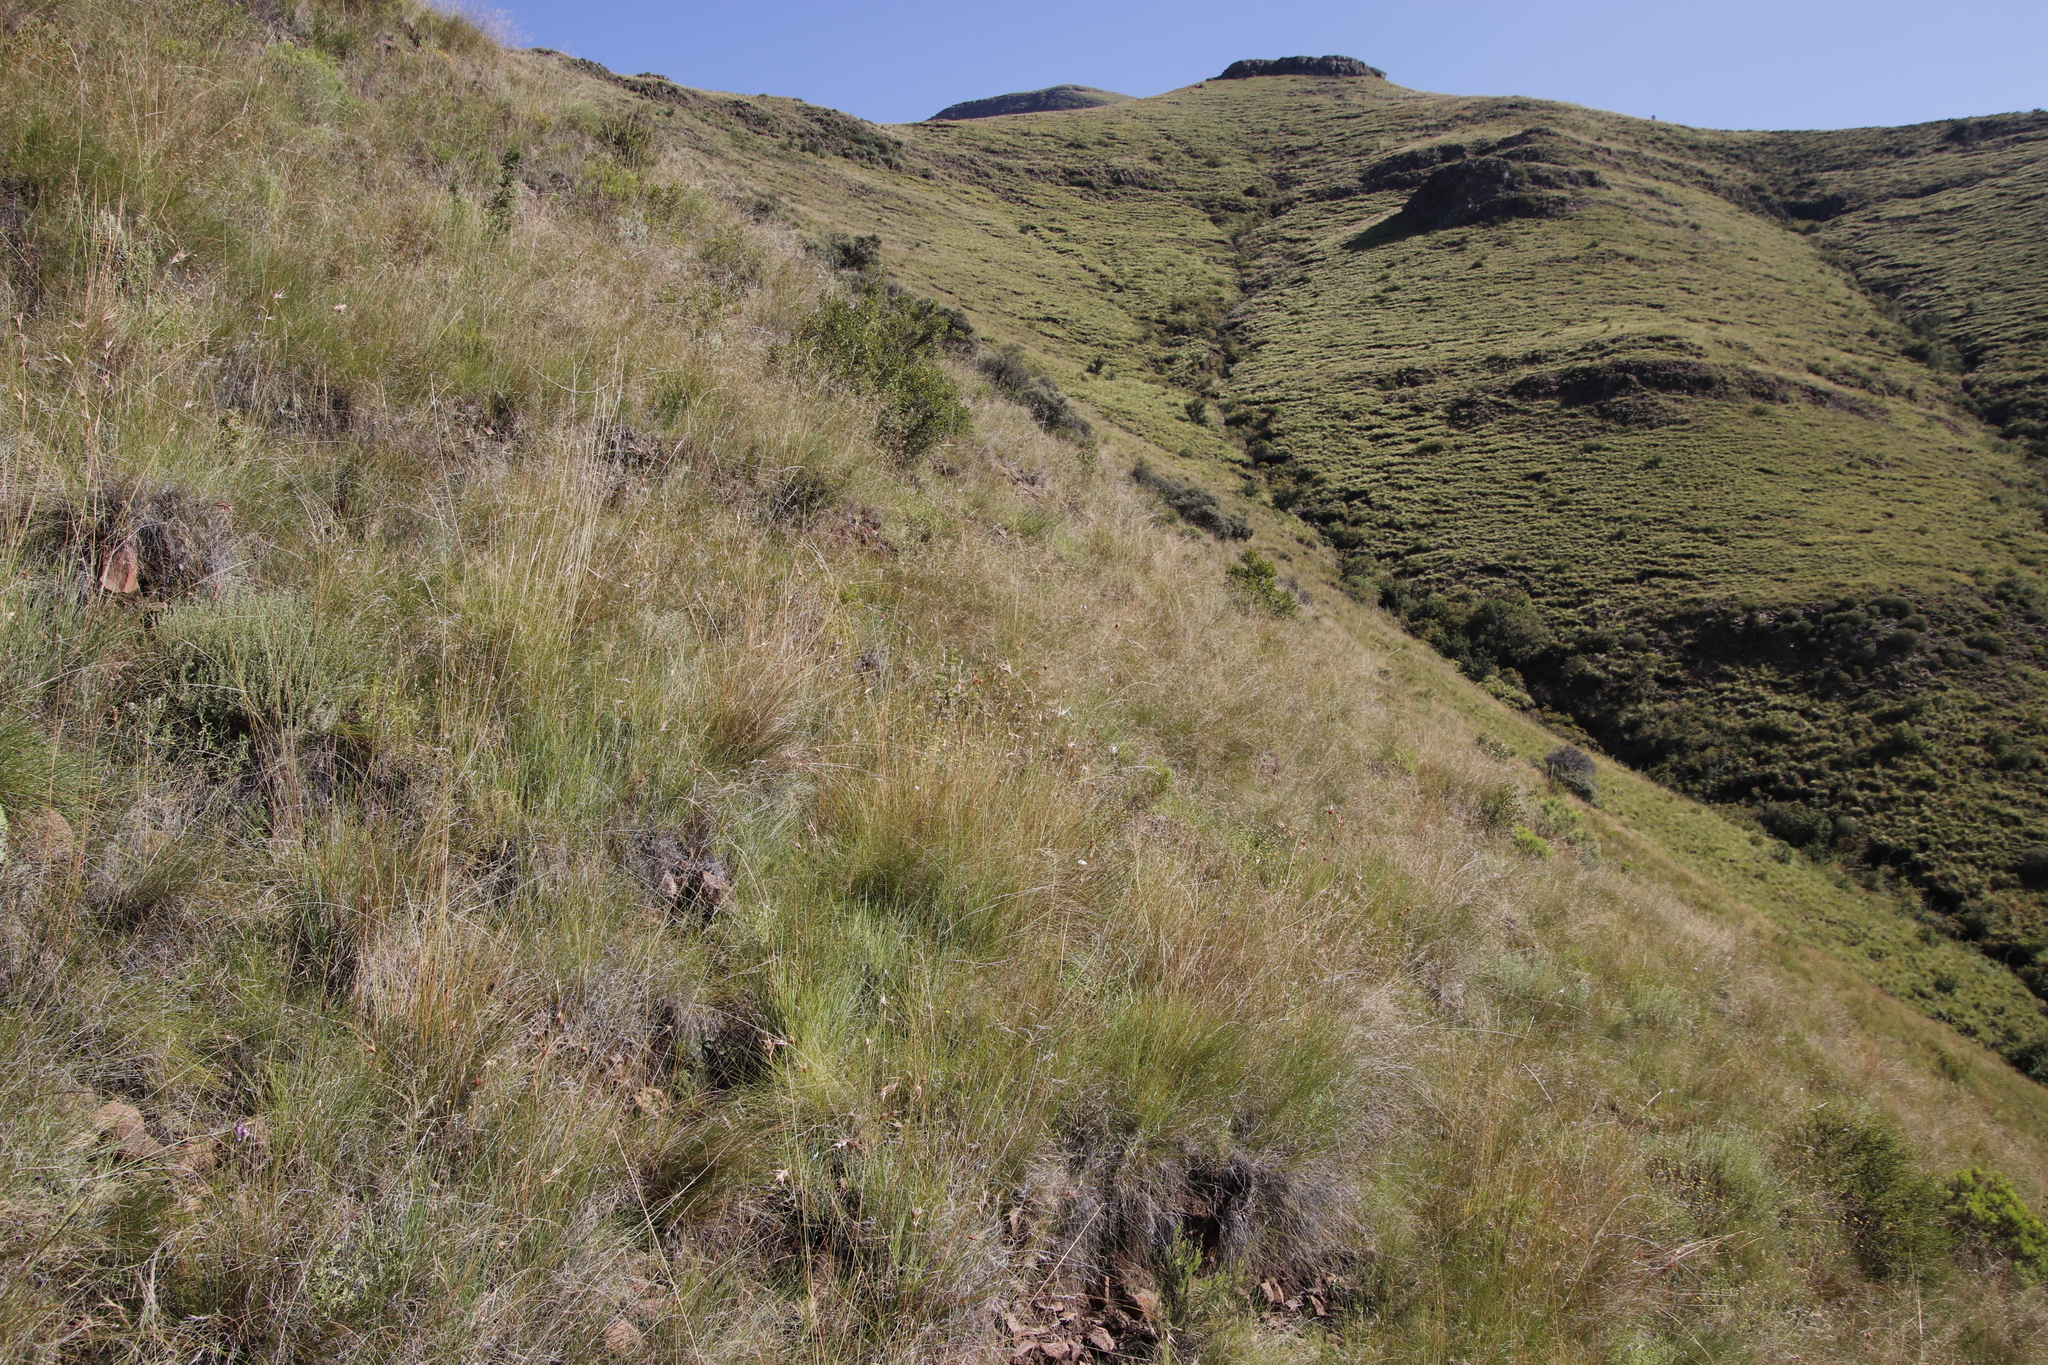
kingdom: Plantae
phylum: Tracheophyta
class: Liliopsida
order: Poales
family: Poaceae
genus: Themeda
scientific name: Themeda triandra
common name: Kangaroo grass
